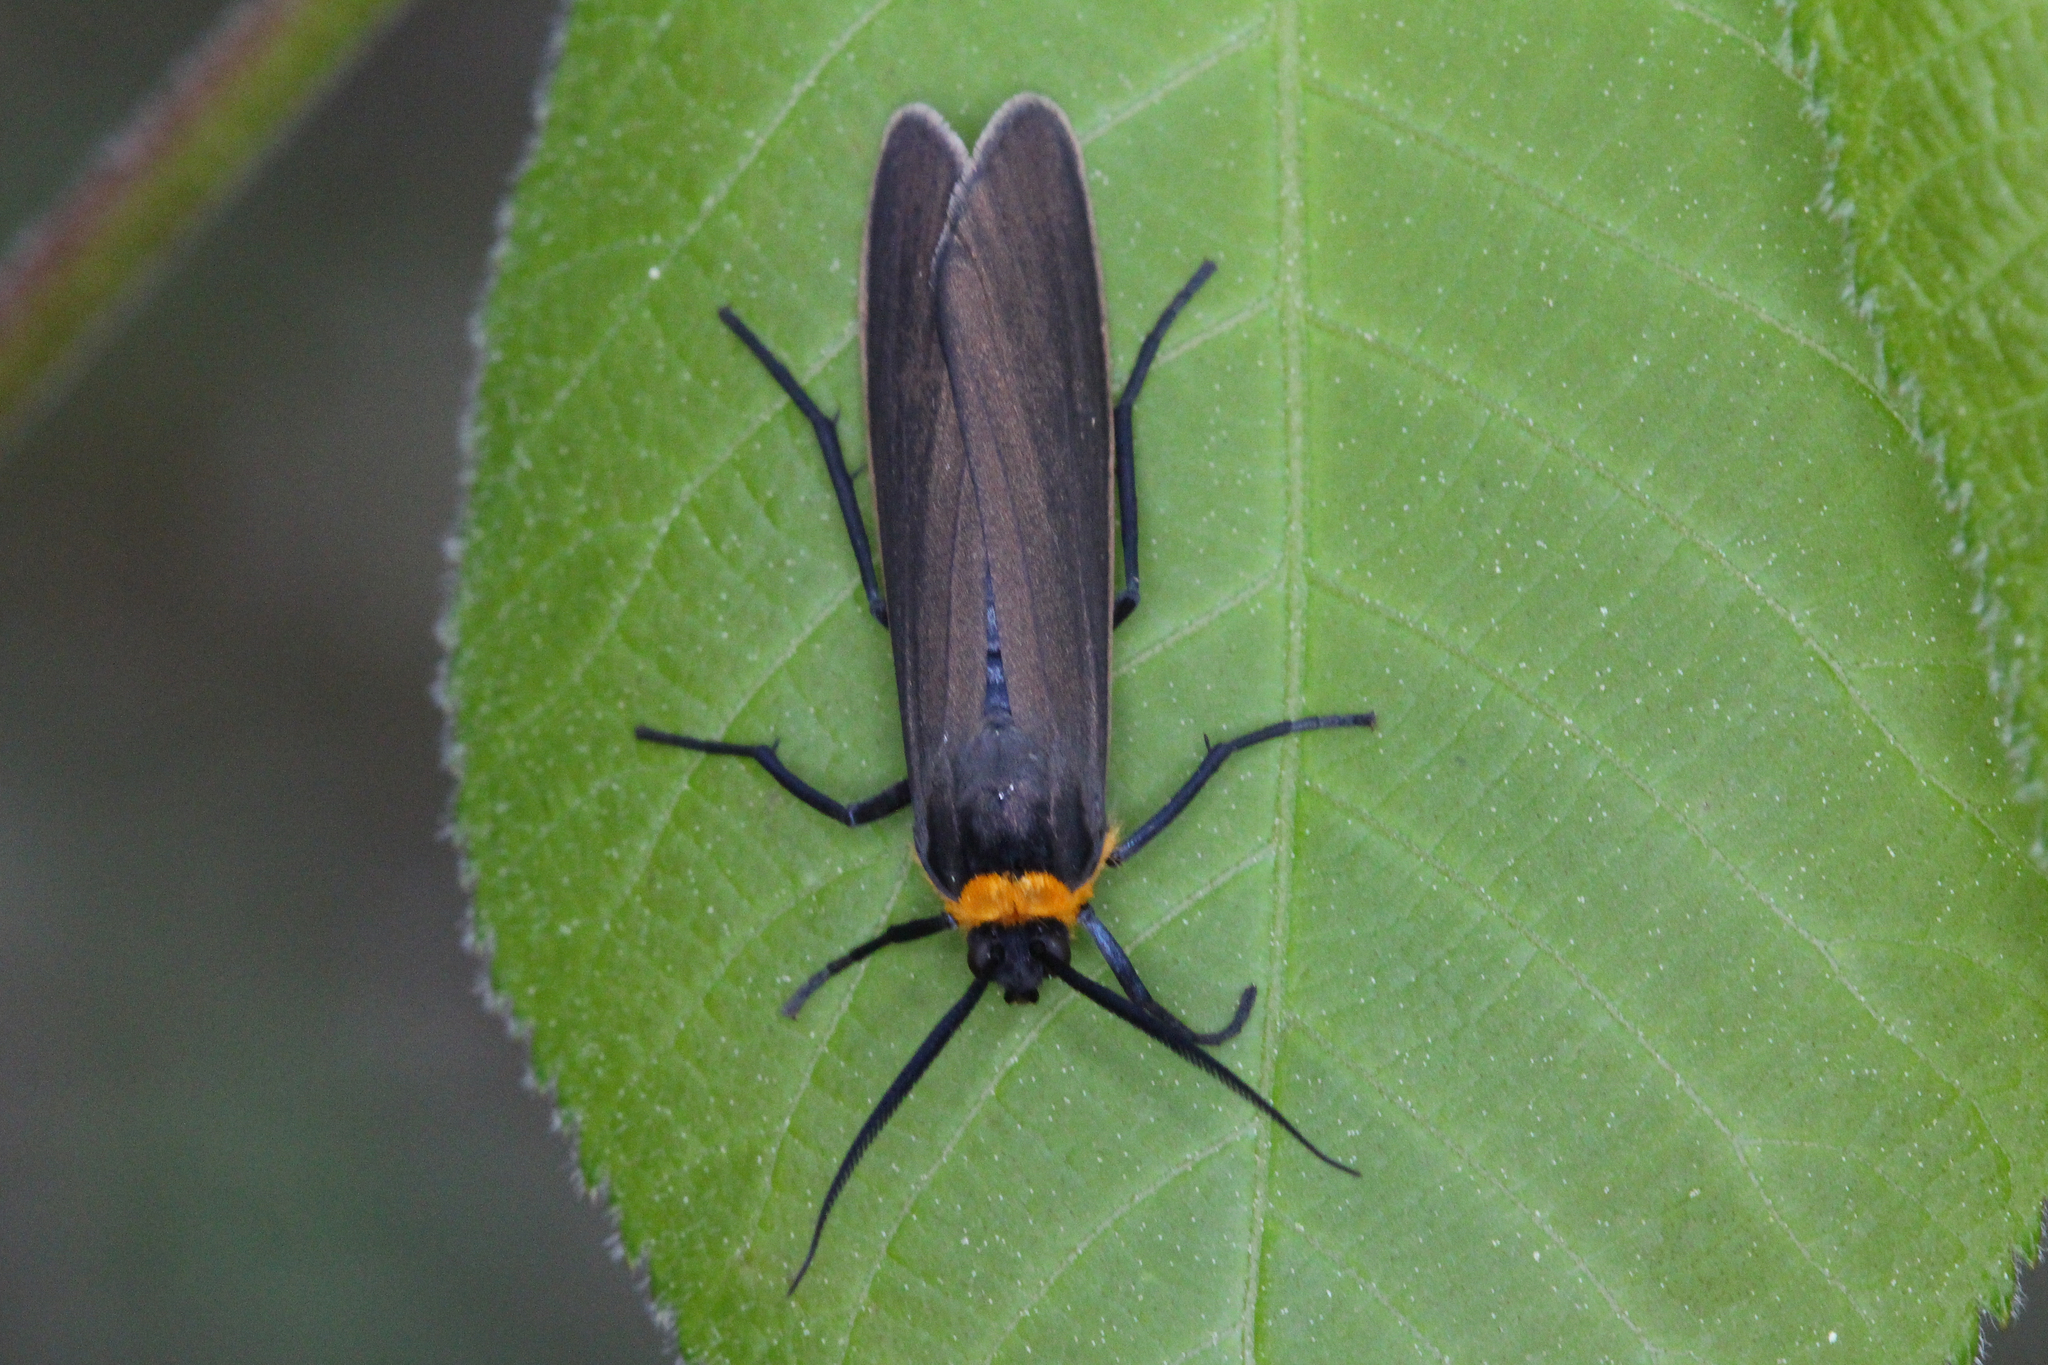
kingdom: Animalia
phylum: Arthropoda
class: Insecta
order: Lepidoptera
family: Erebidae
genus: Cisseps
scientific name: Cisseps fulvicollis
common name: Yellow-collared scape moth
